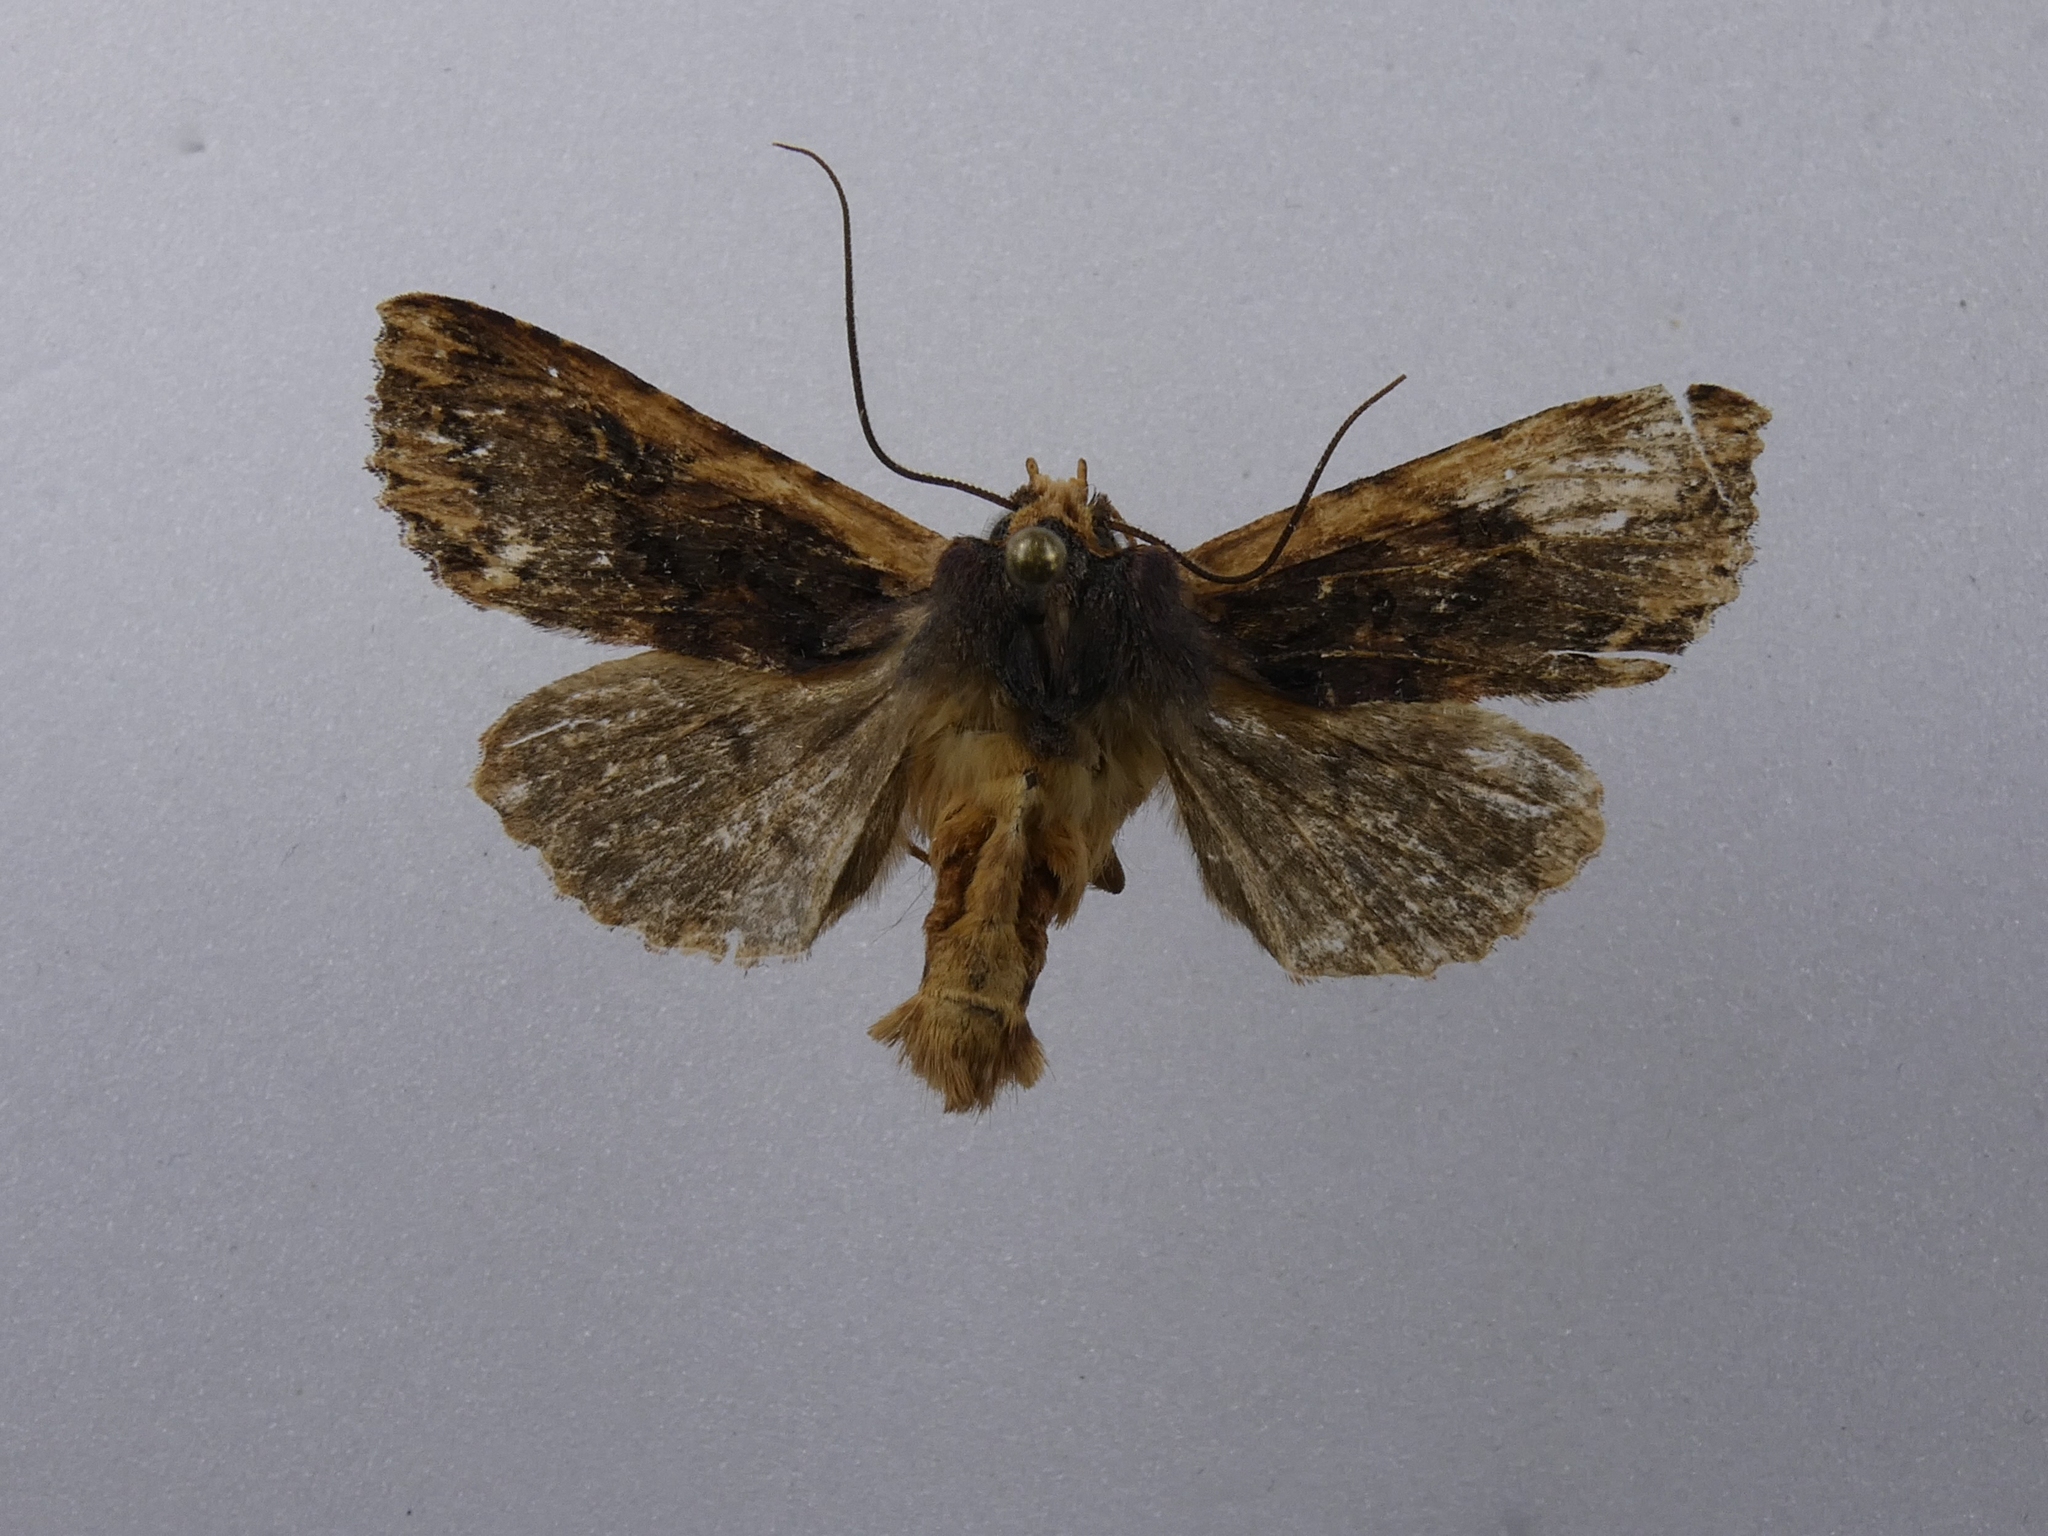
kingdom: Animalia
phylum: Arthropoda
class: Insecta
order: Lepidoptera
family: Noctuidae
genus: Meterana
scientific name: Meterana alcyone
